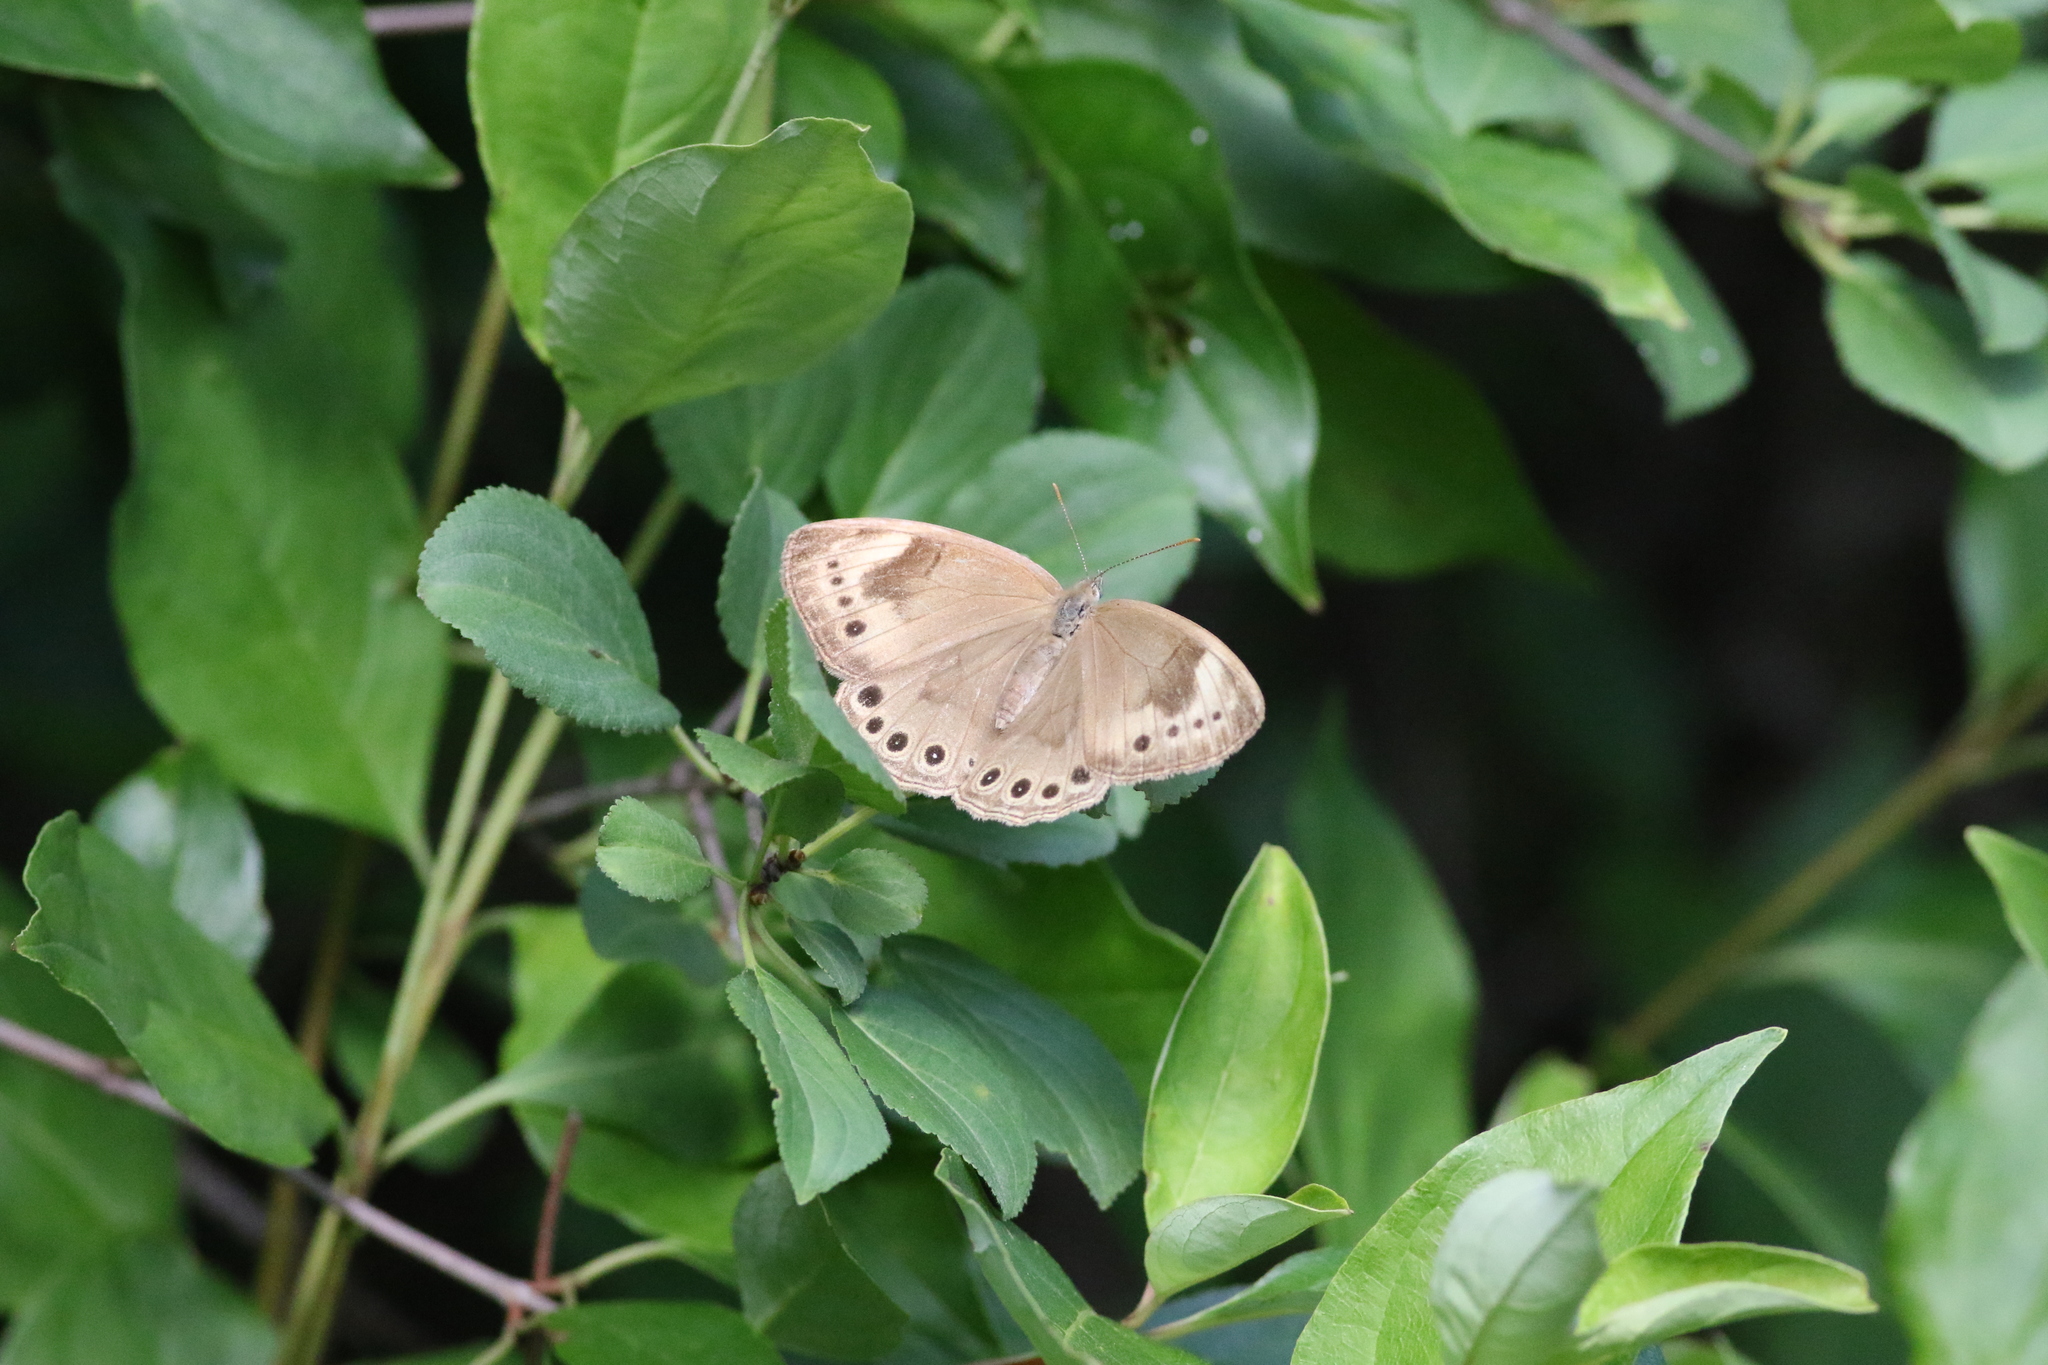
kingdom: Animalia
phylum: Arthropoda
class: Insecta
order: Lepidoptera
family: Nymphalidae
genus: Lethe
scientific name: Lethe eurydice
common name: Eyed brown
